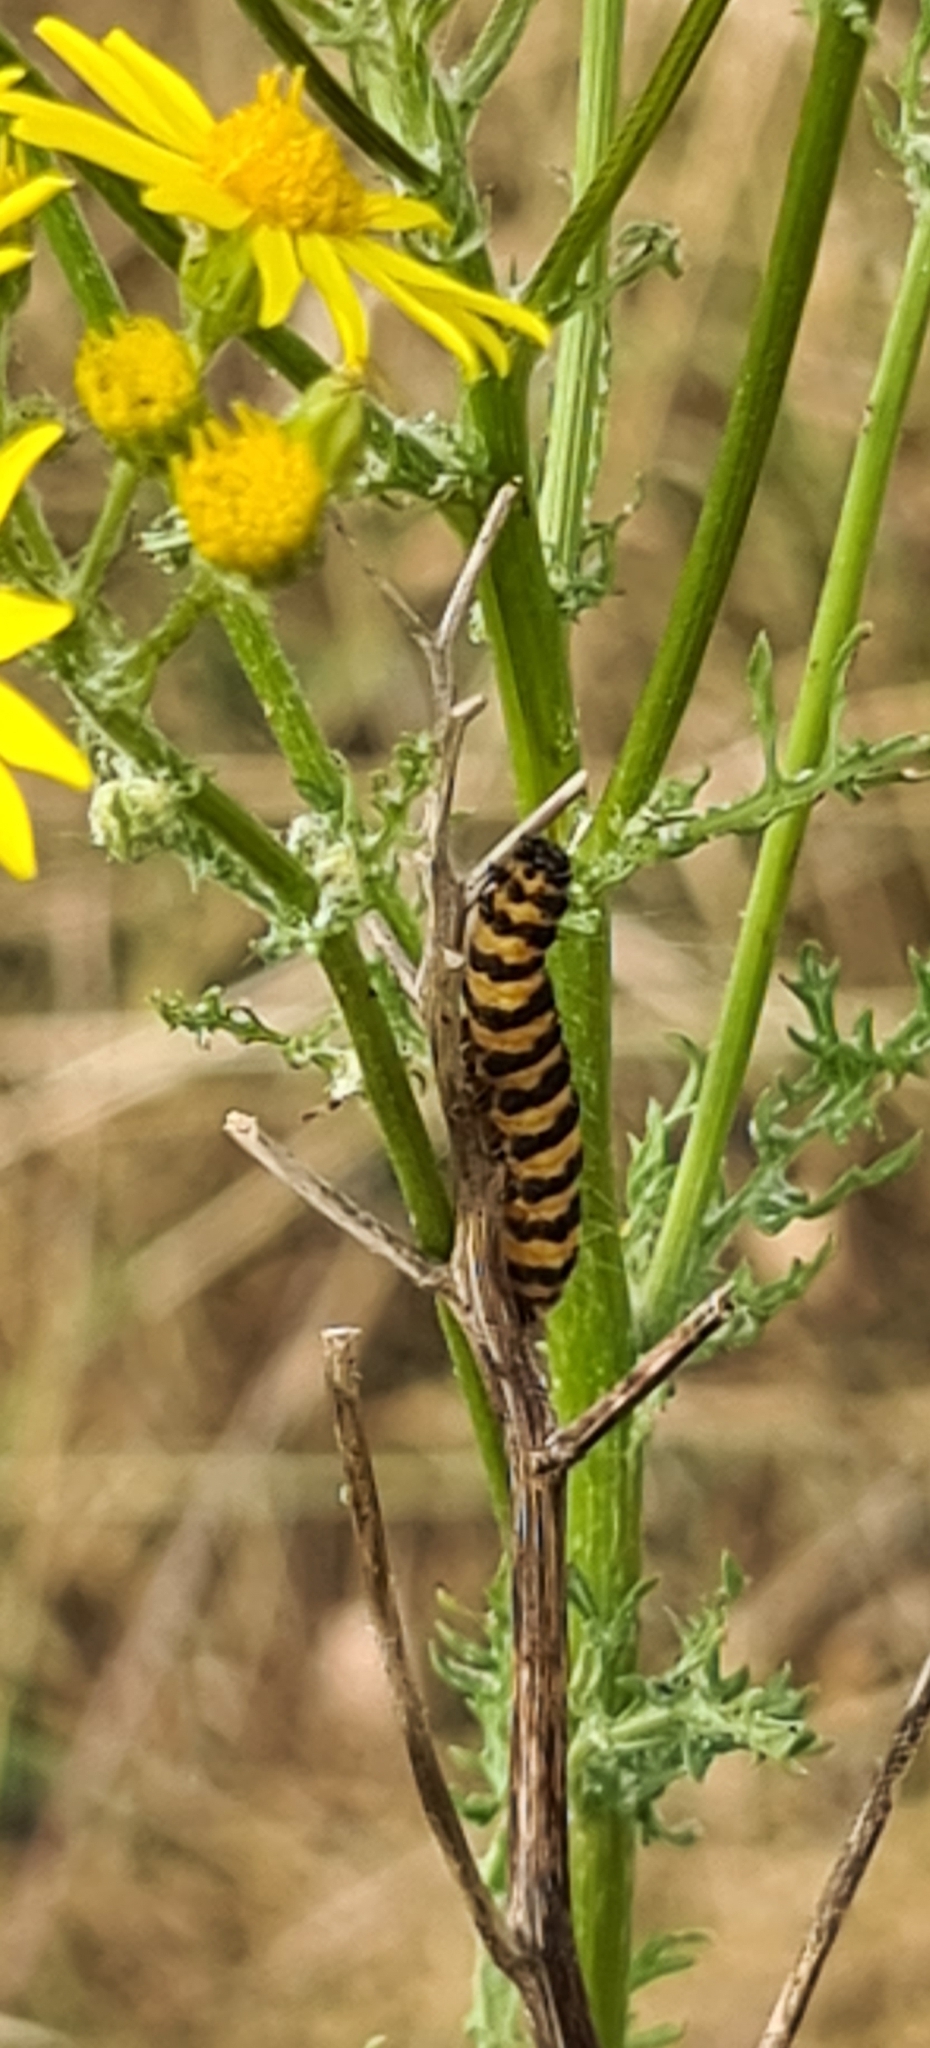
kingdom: Animalia
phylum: Arthropoda
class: Insecta
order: Lepidoptera
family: Erebidae
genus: Tyria
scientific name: Tyria jacobaeae
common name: Cinnabar
